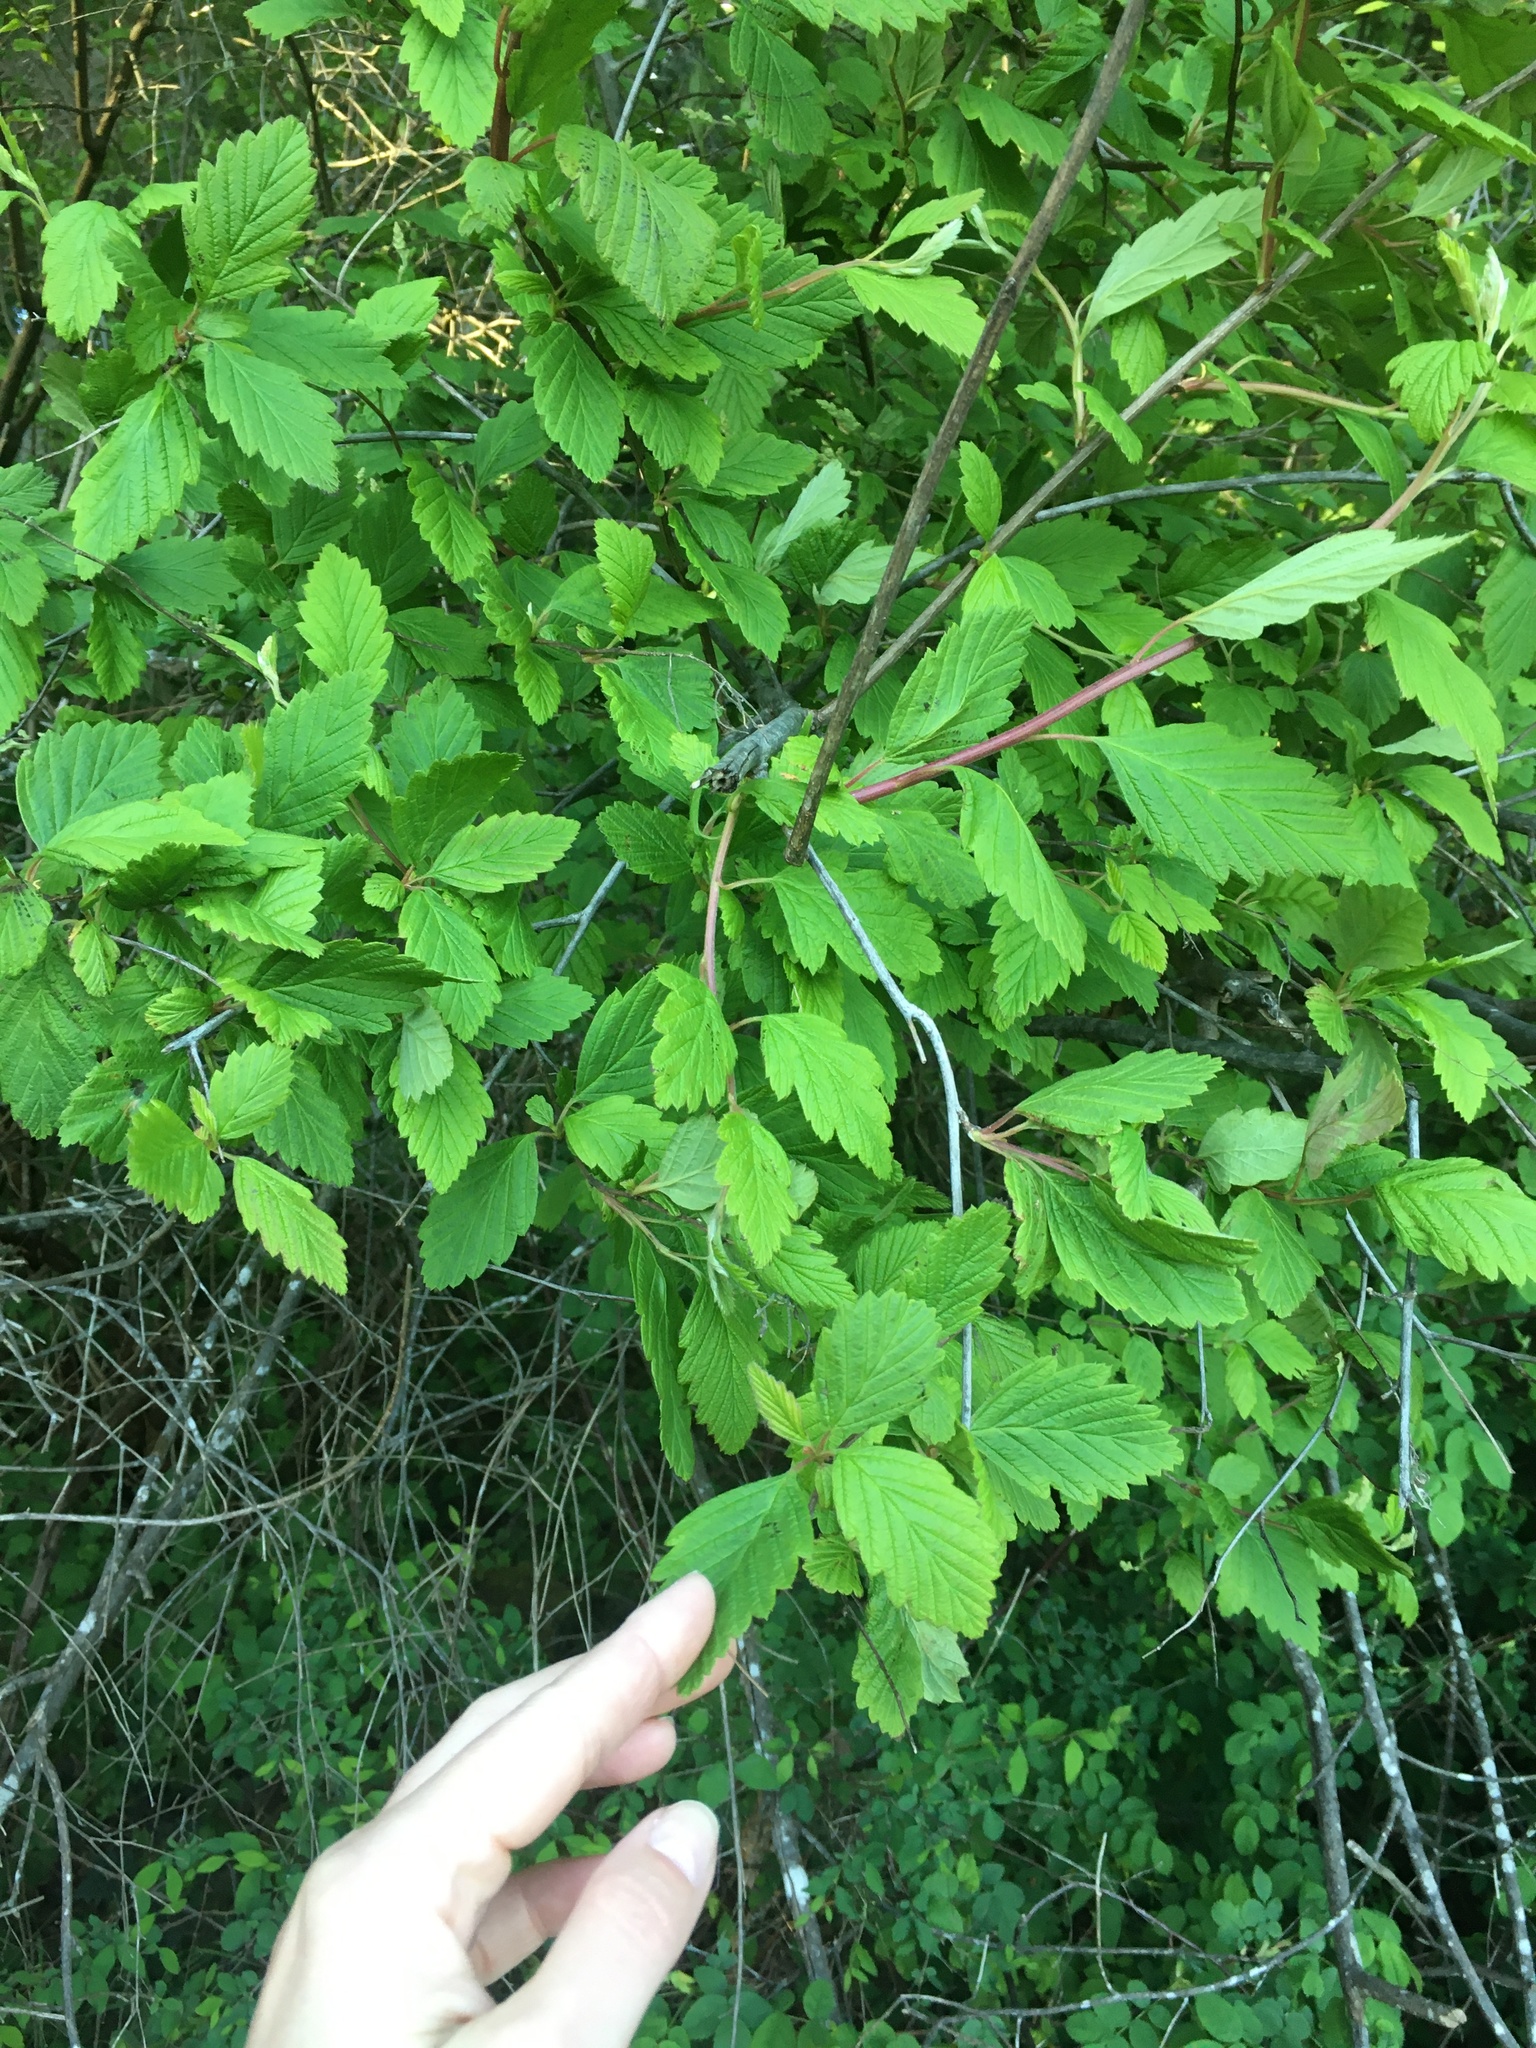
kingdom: Plantae
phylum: Tracheophyta
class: Magnoliopsida
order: Rosales
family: Rosaceae
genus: Holodiscus
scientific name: Holodiscus discolor
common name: Oceanspray
